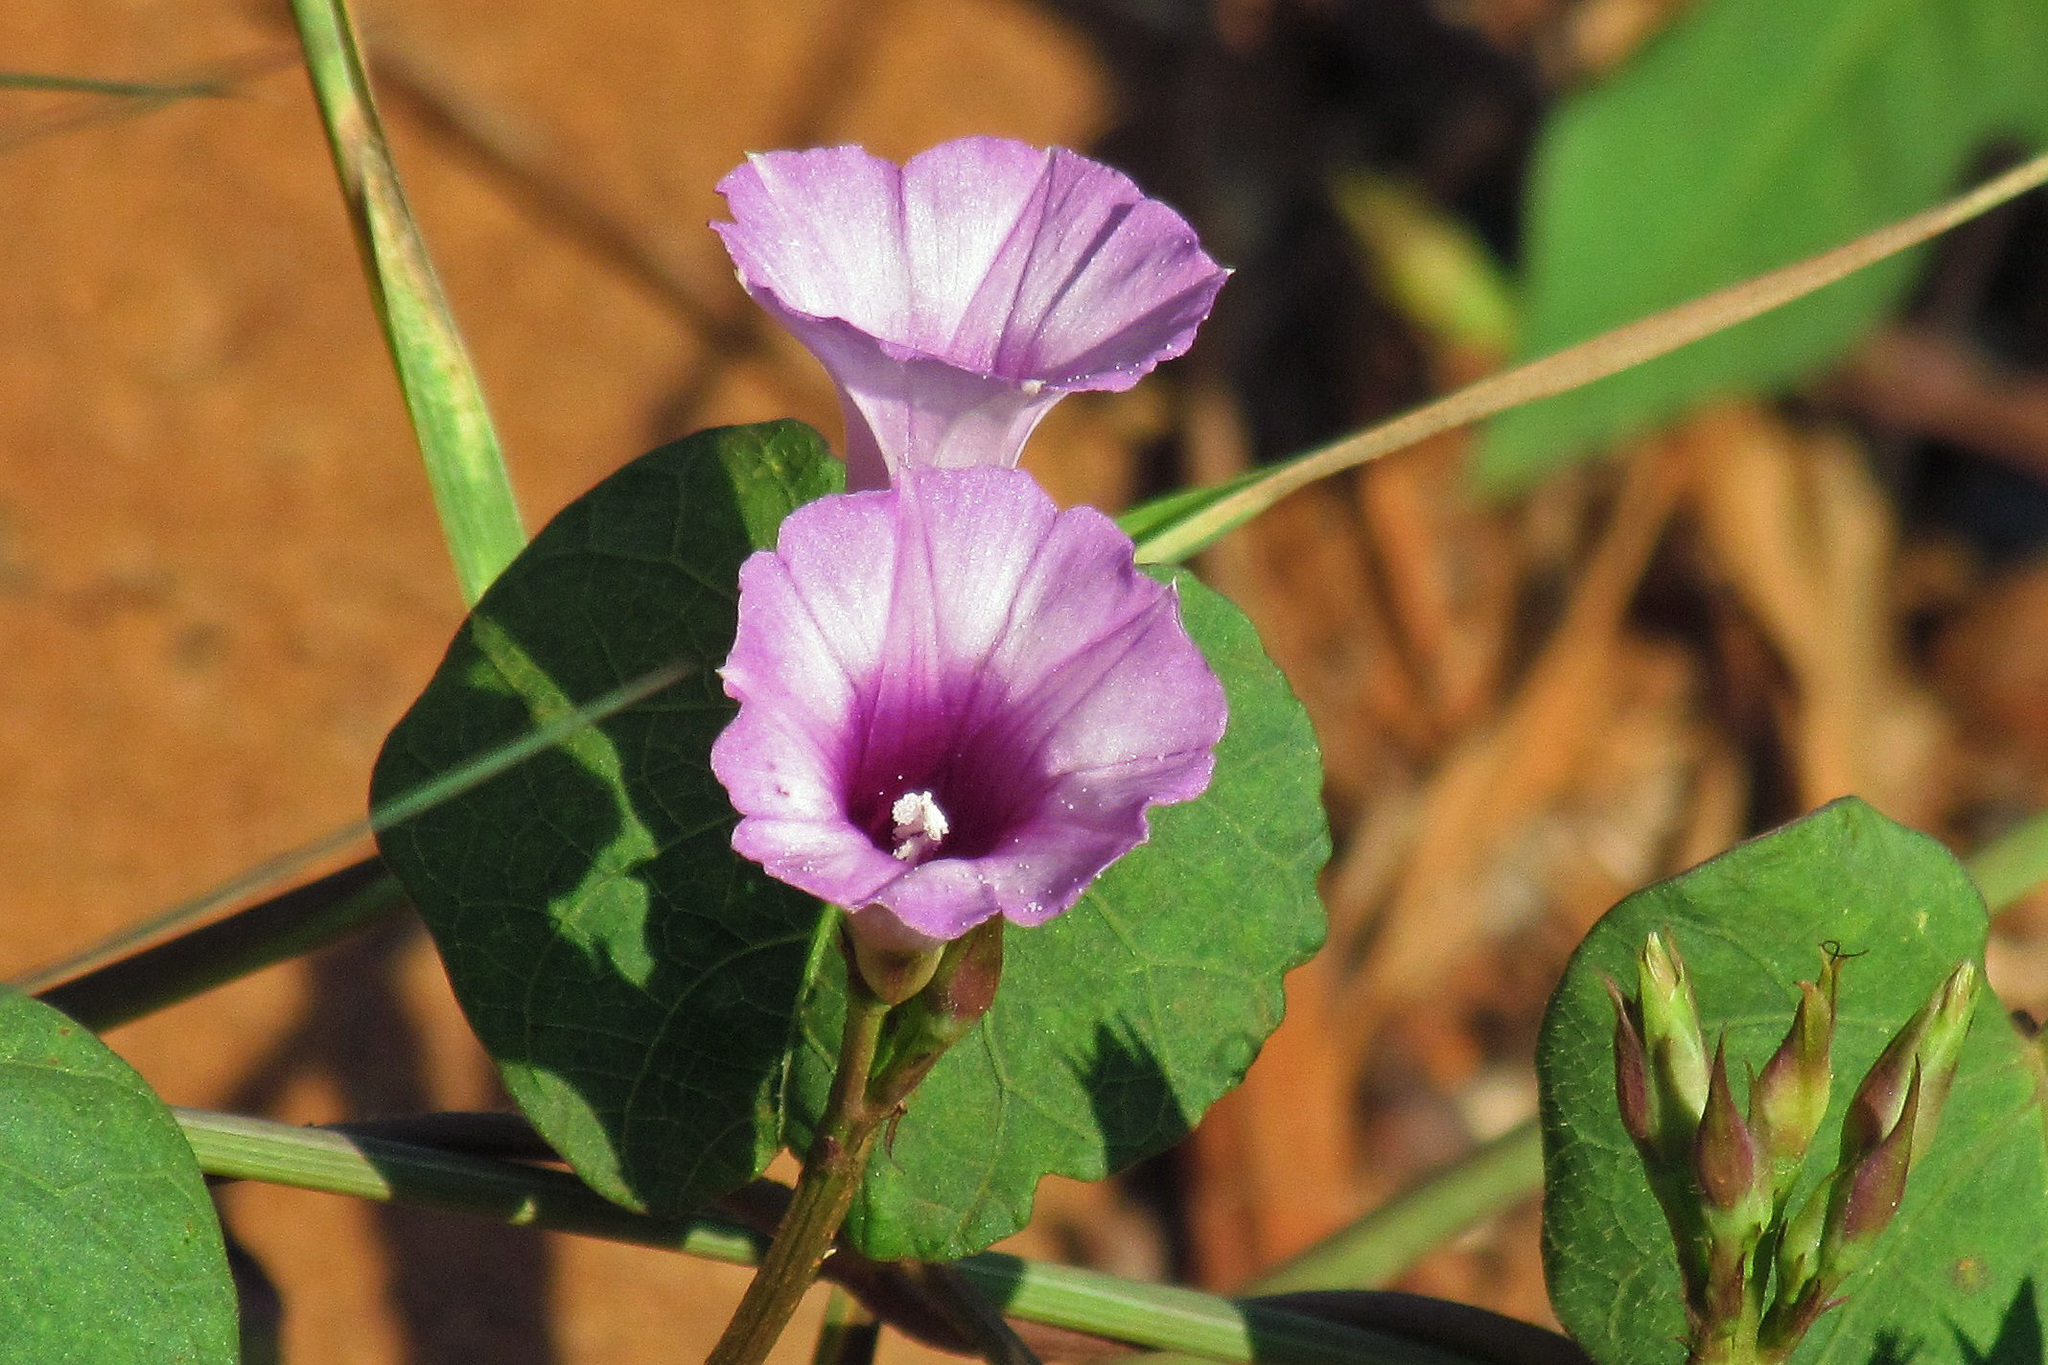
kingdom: Plantae
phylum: Tracheophyta
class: Magnoliopsida
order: Solanales
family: Convolvulaceae
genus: Ipomoea
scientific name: Ipomoea grandifolia
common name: Aiea morning glory
